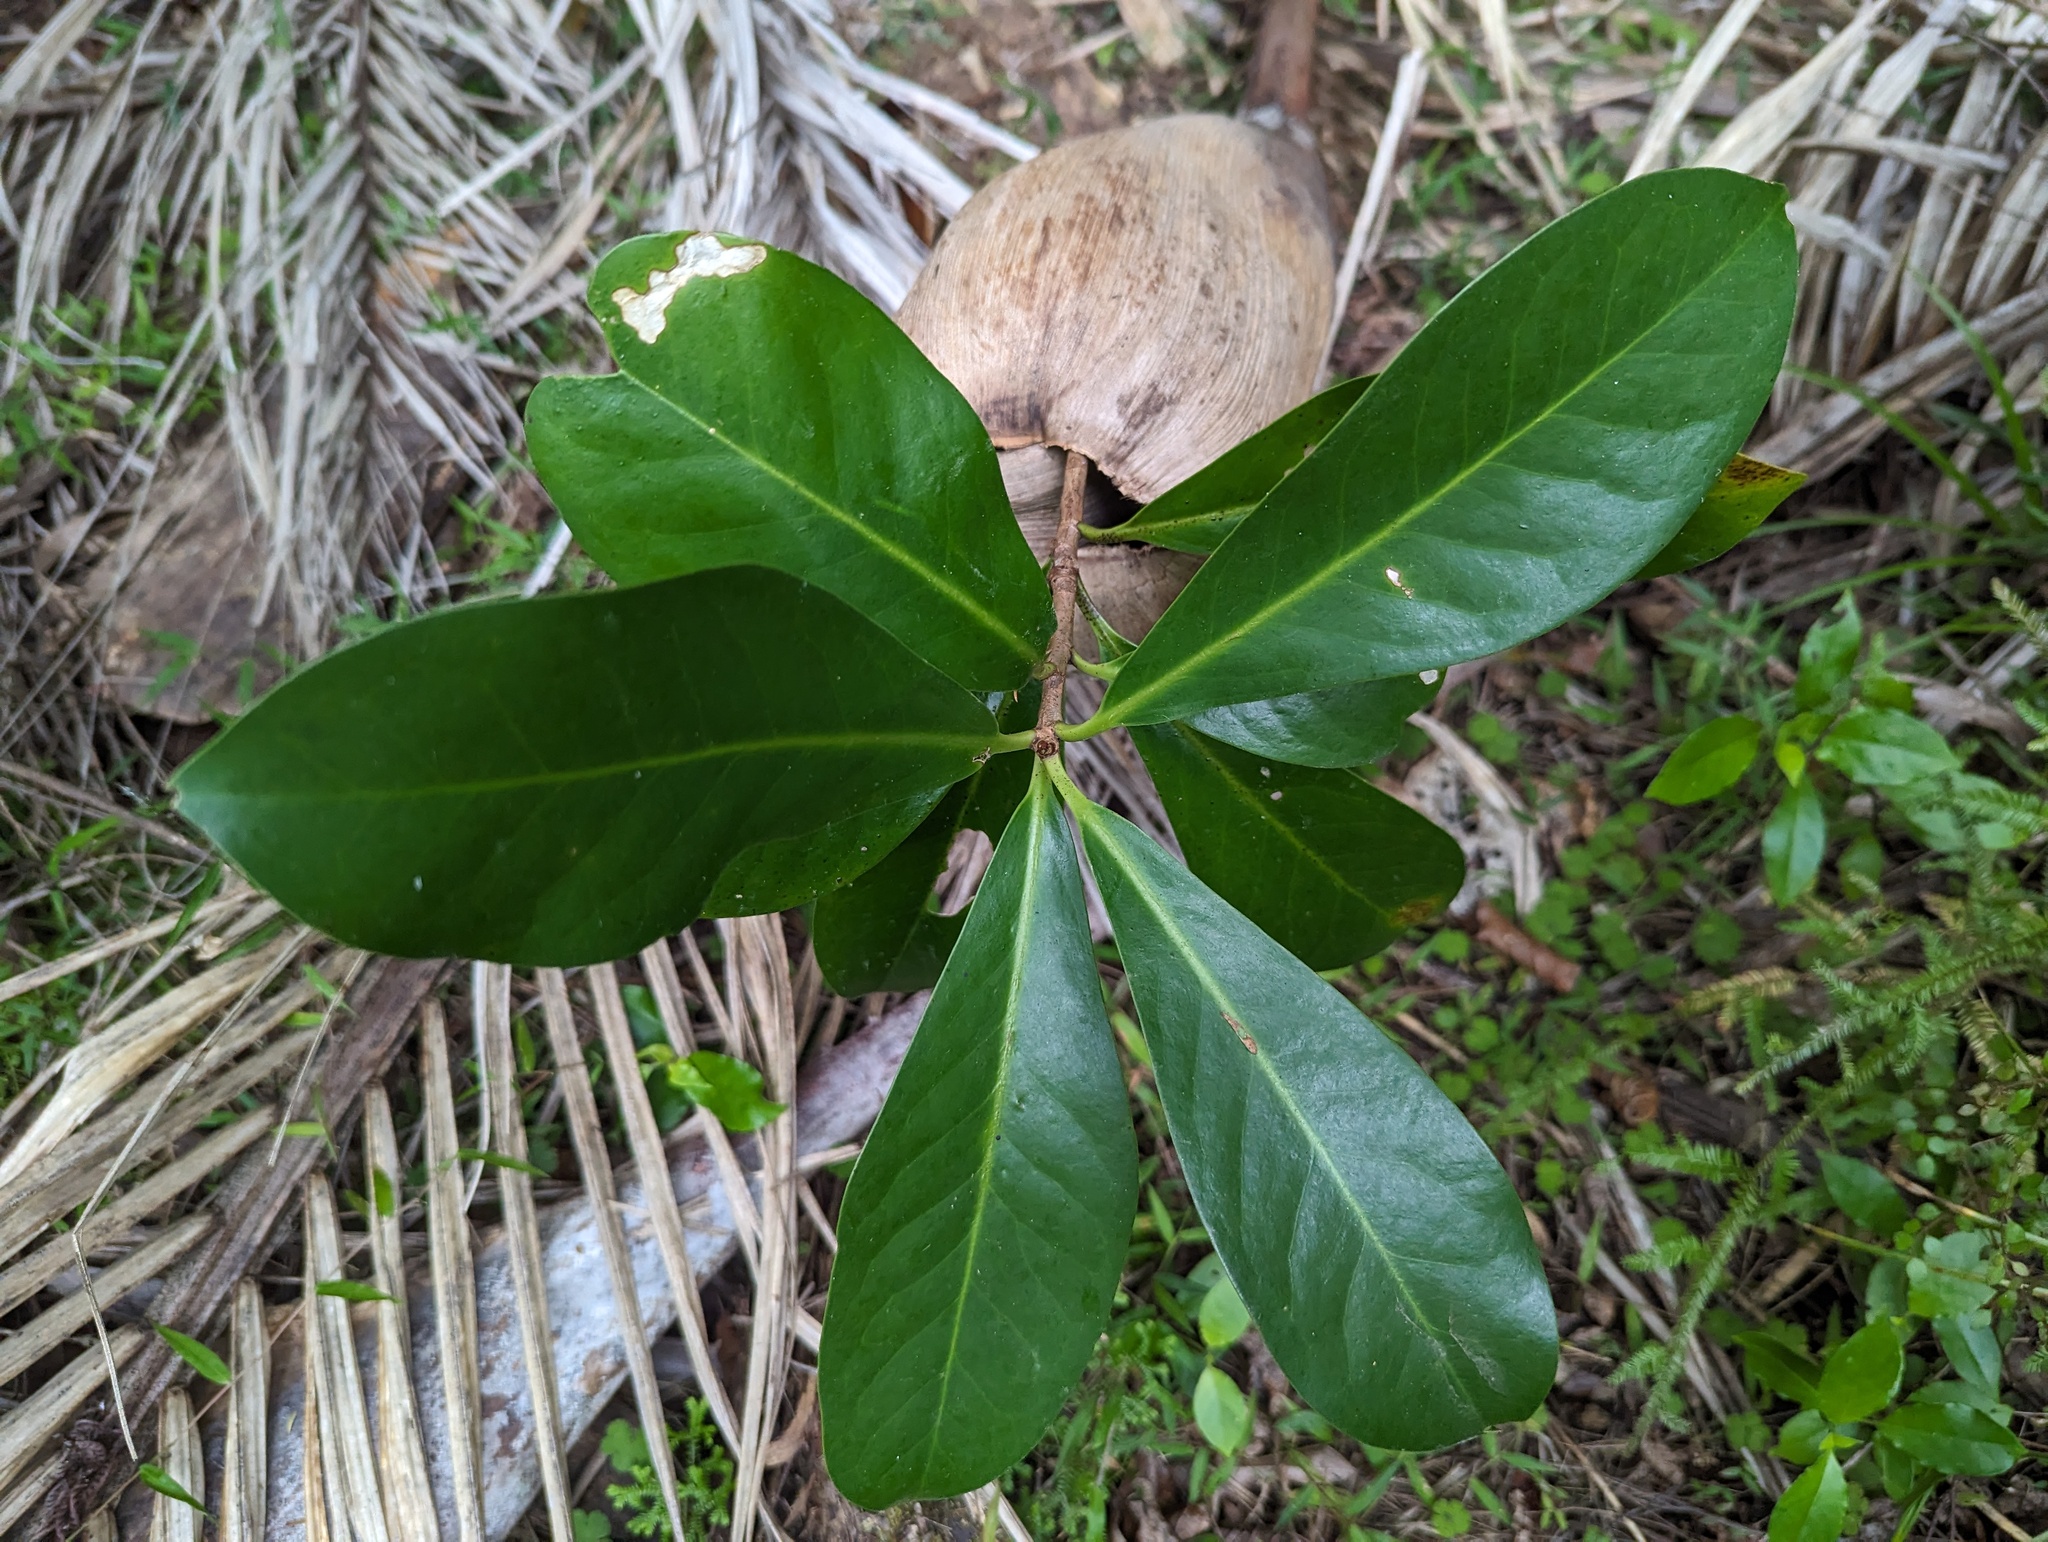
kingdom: Plantae
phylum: Tracheophyta
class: Magnoliopsida
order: Cucurbitales
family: Corynocarpaceae
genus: Corynocarpus
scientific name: Corynocarpus laevigatus
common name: New zealand laurel
